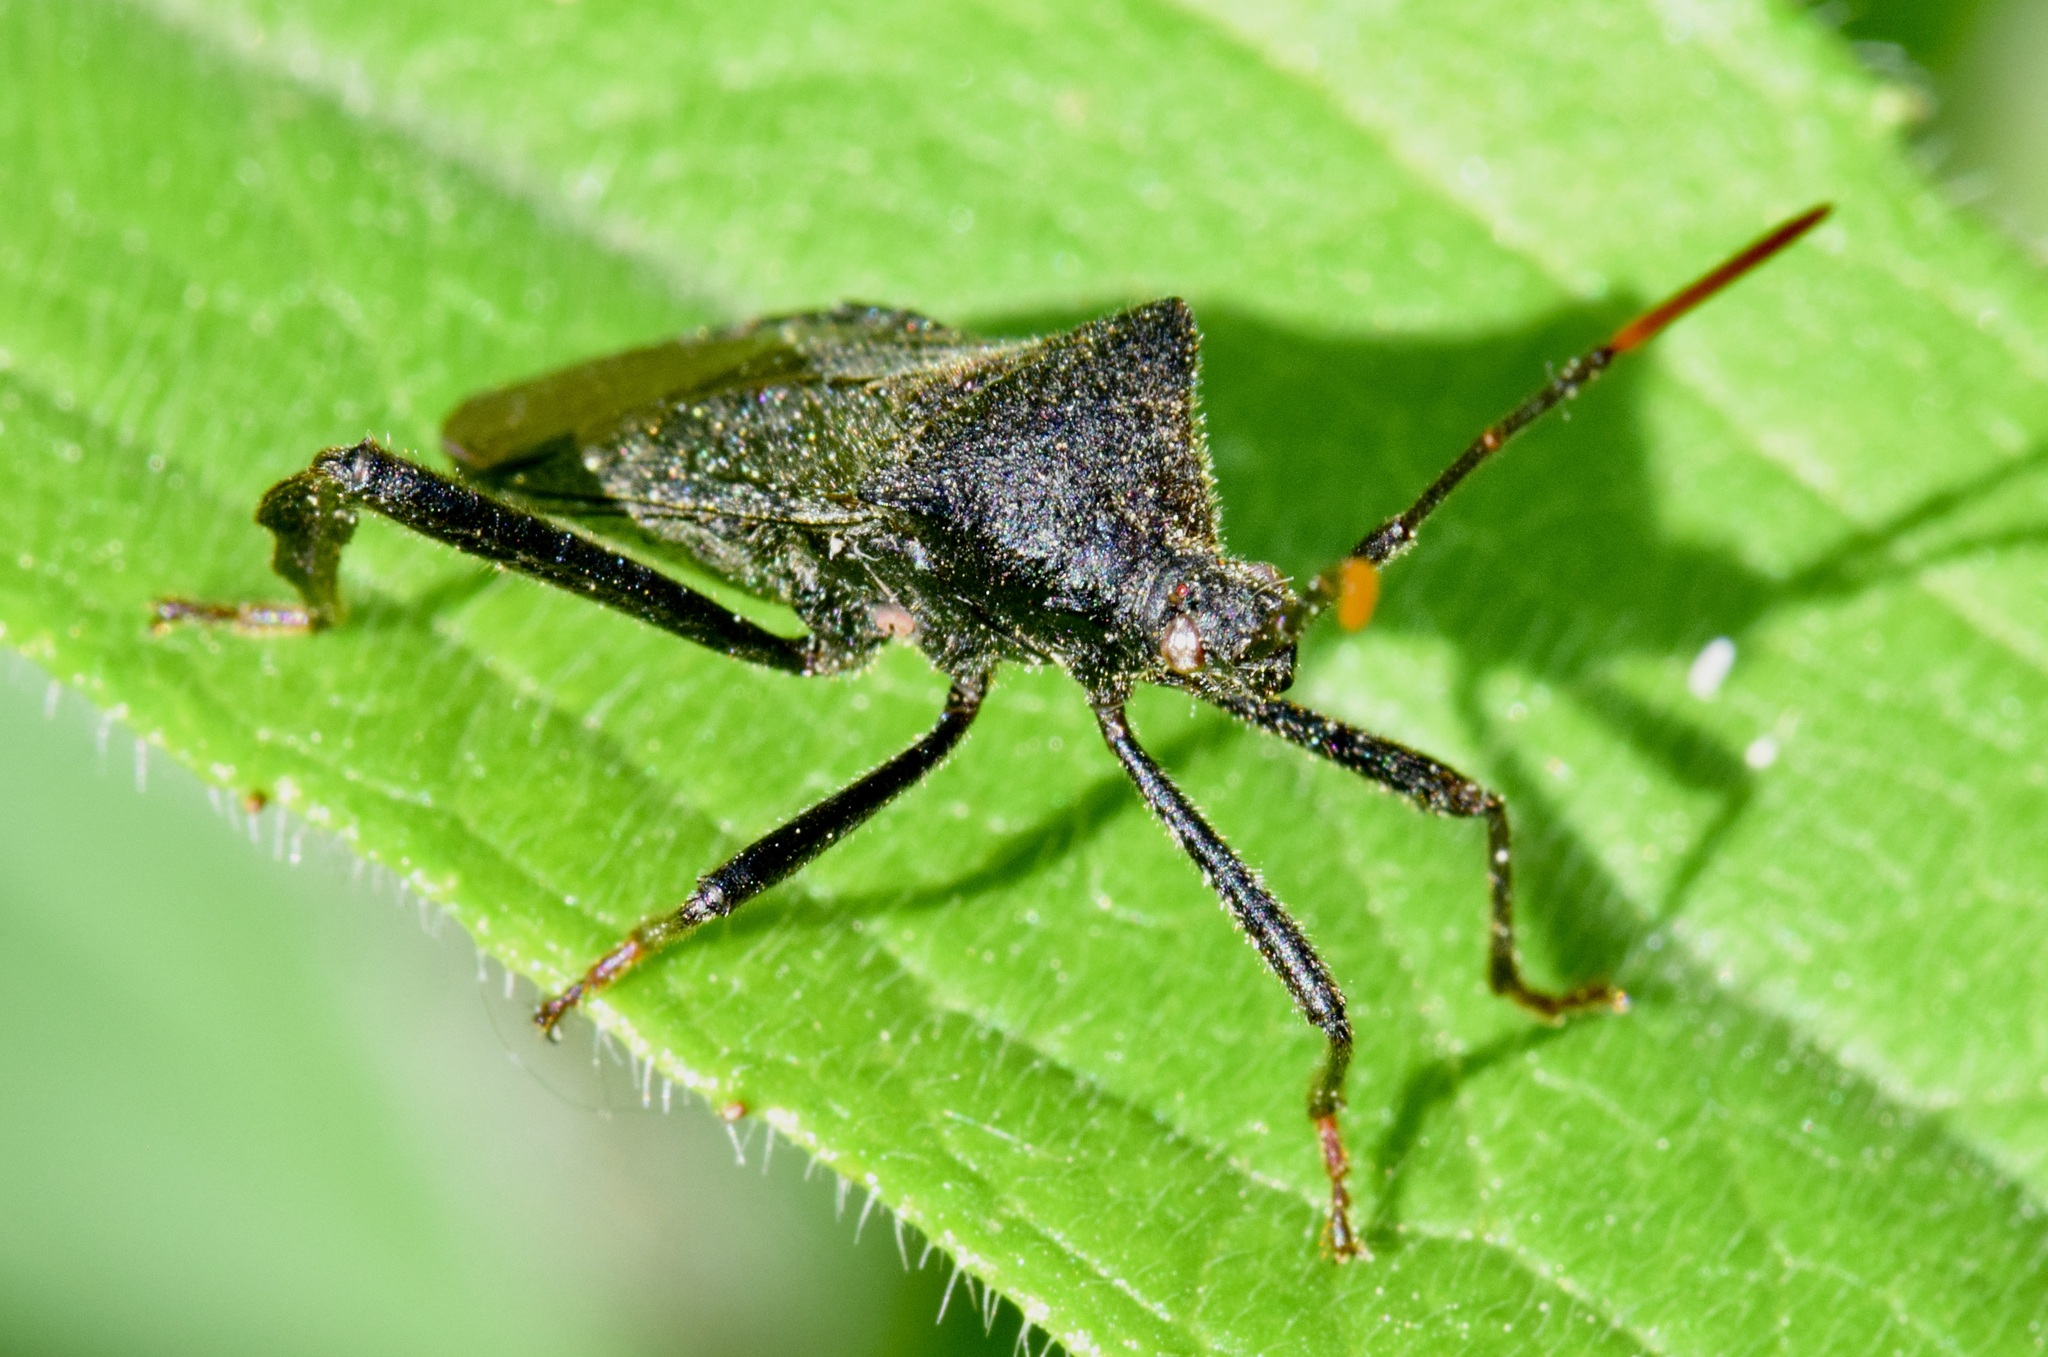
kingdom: Animalia
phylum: Arthropoda
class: Insecta
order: Hemiptera
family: Coreidae
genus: Acanthocephala
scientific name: Acanthocephala terminalis
